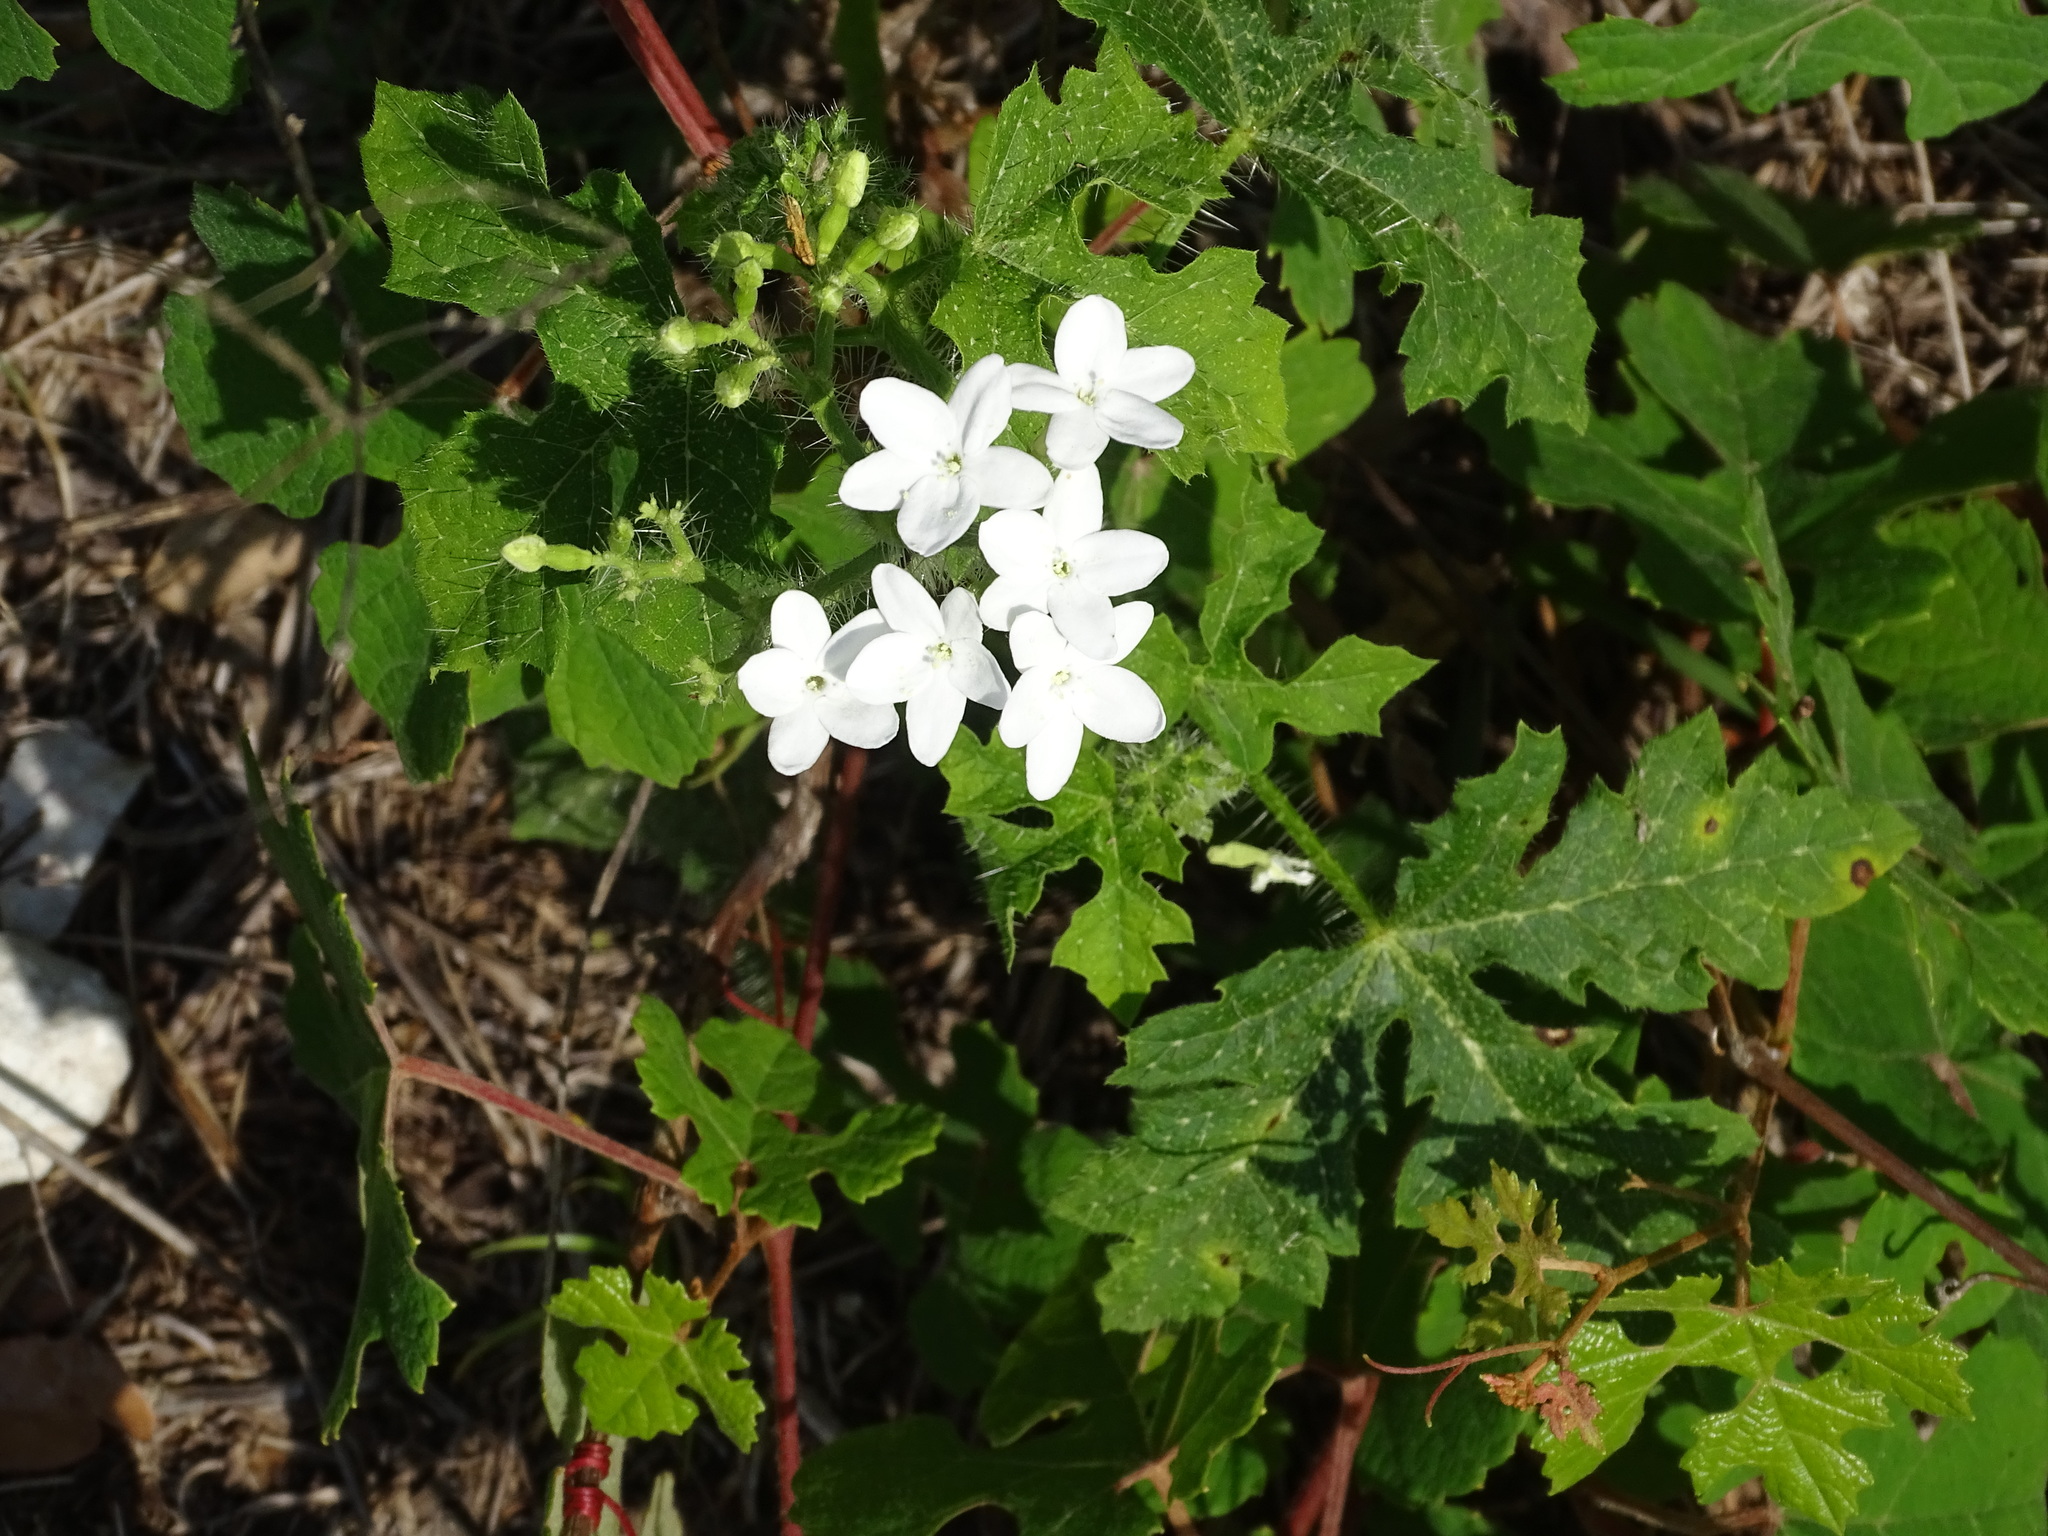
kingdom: Plantae
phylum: Tracheophyta
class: Magnoliopsida
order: Malpighiales
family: Euphorbiaceae
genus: Cnidoscolus
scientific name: Cnidoscolus stimulosus
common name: Bull-nettle
